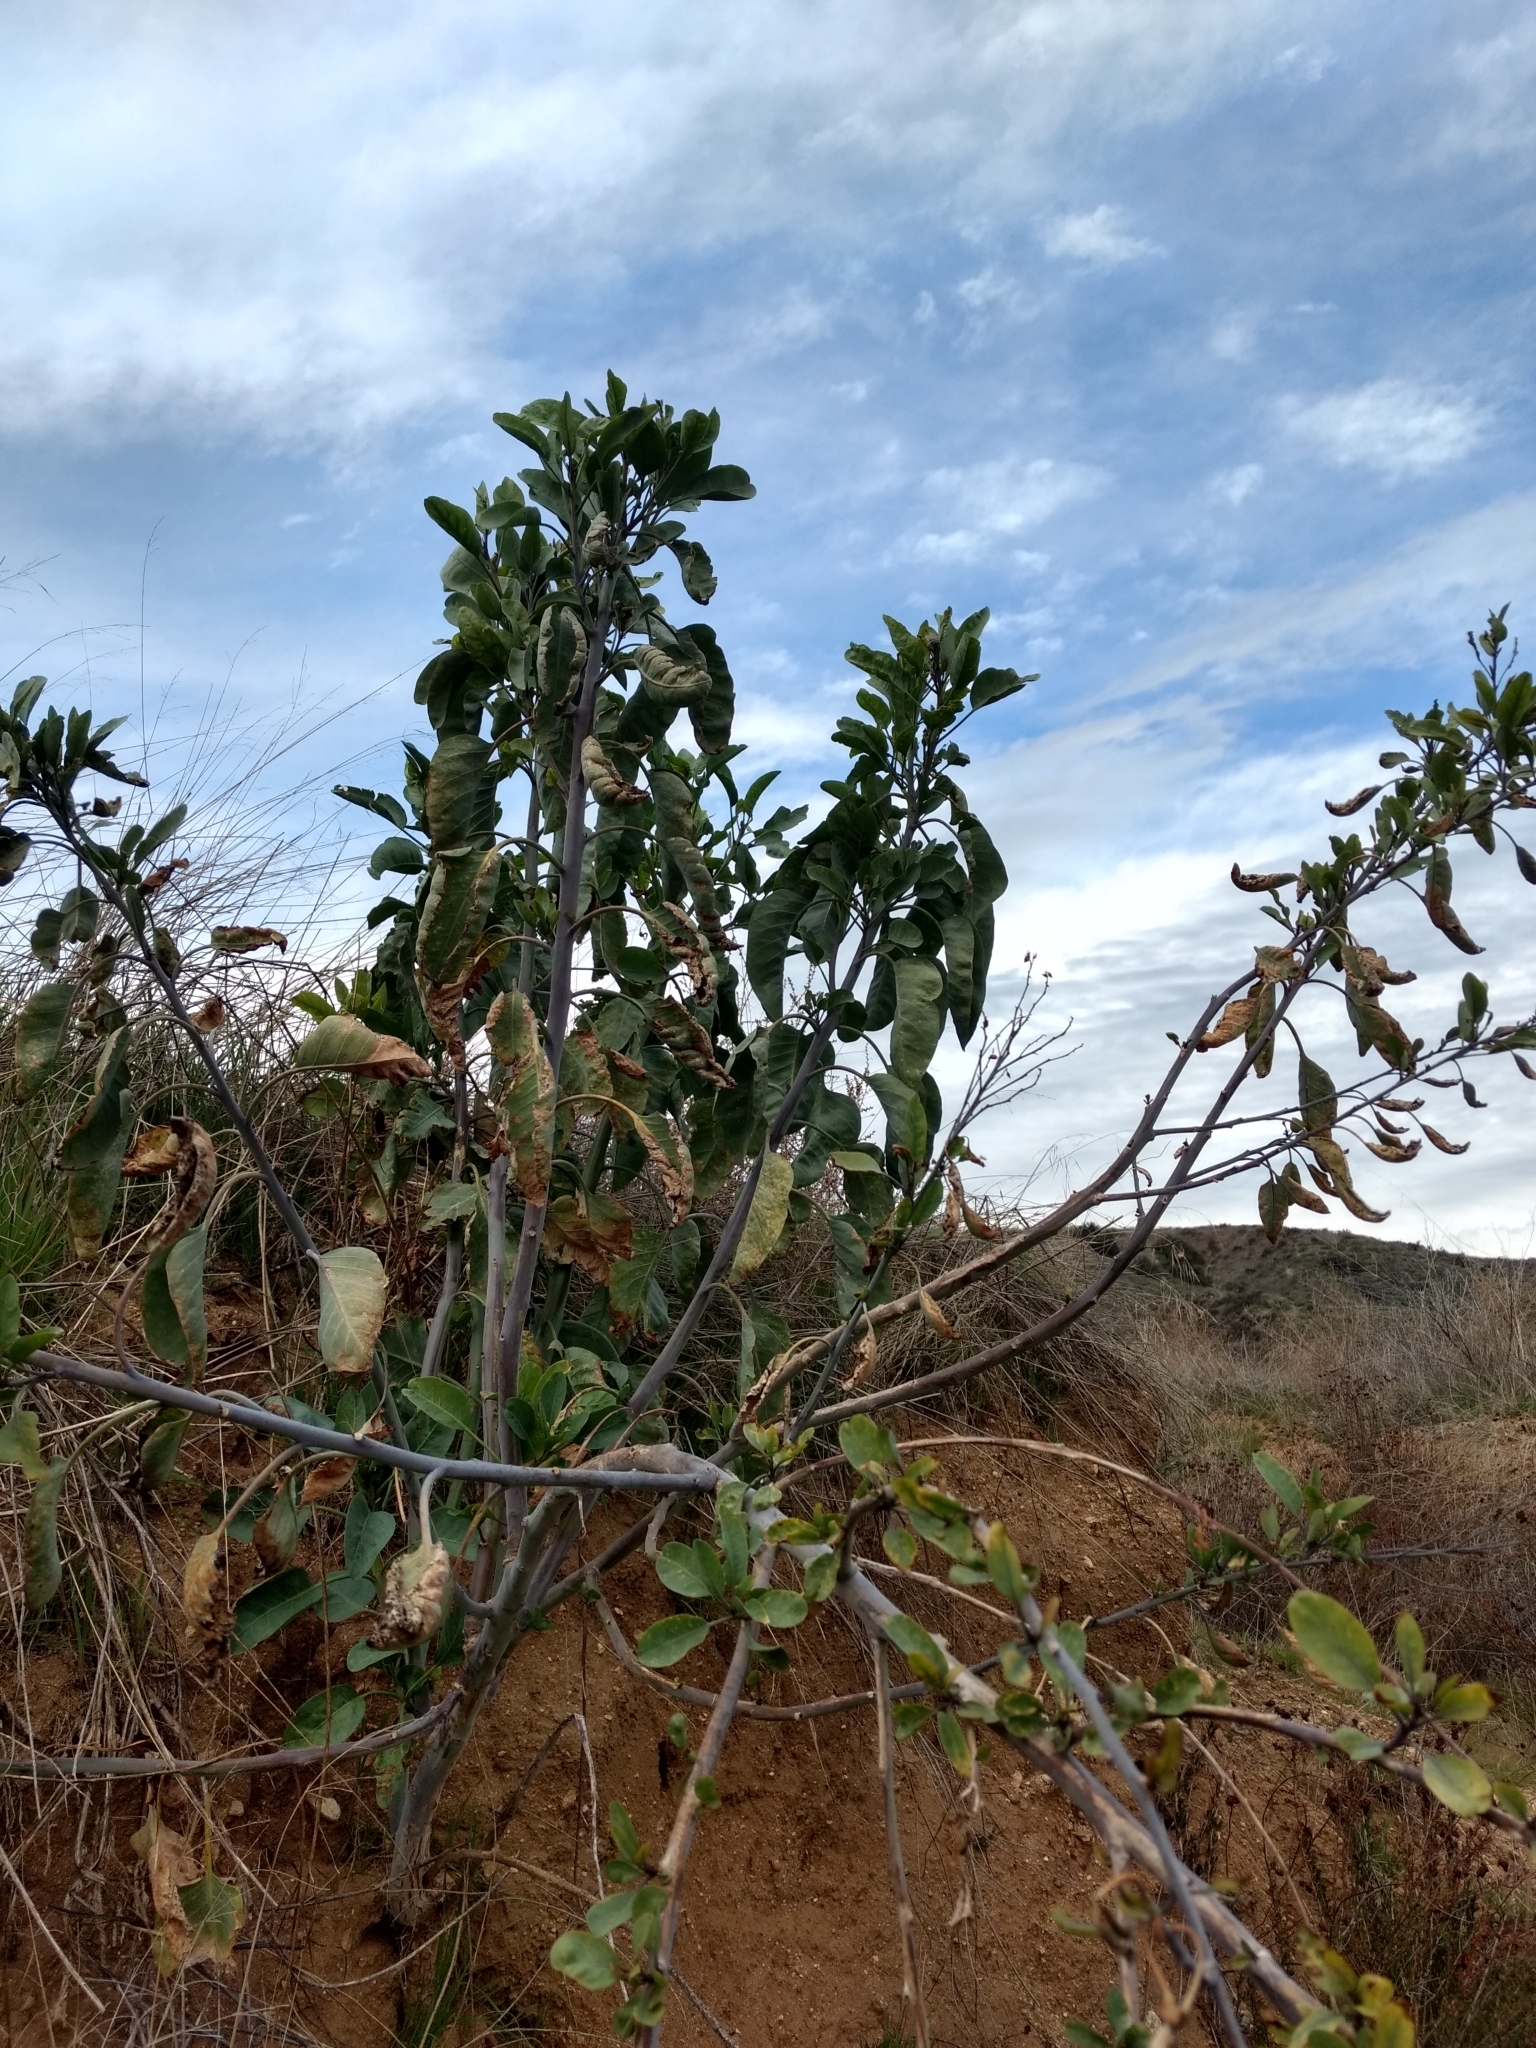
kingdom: Plantae
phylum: Tracheophyta
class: Magnoliopsida
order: Solanales
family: Solanaceae
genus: Nicotiana
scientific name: Nicotiana glauca
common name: Tree tobacco
